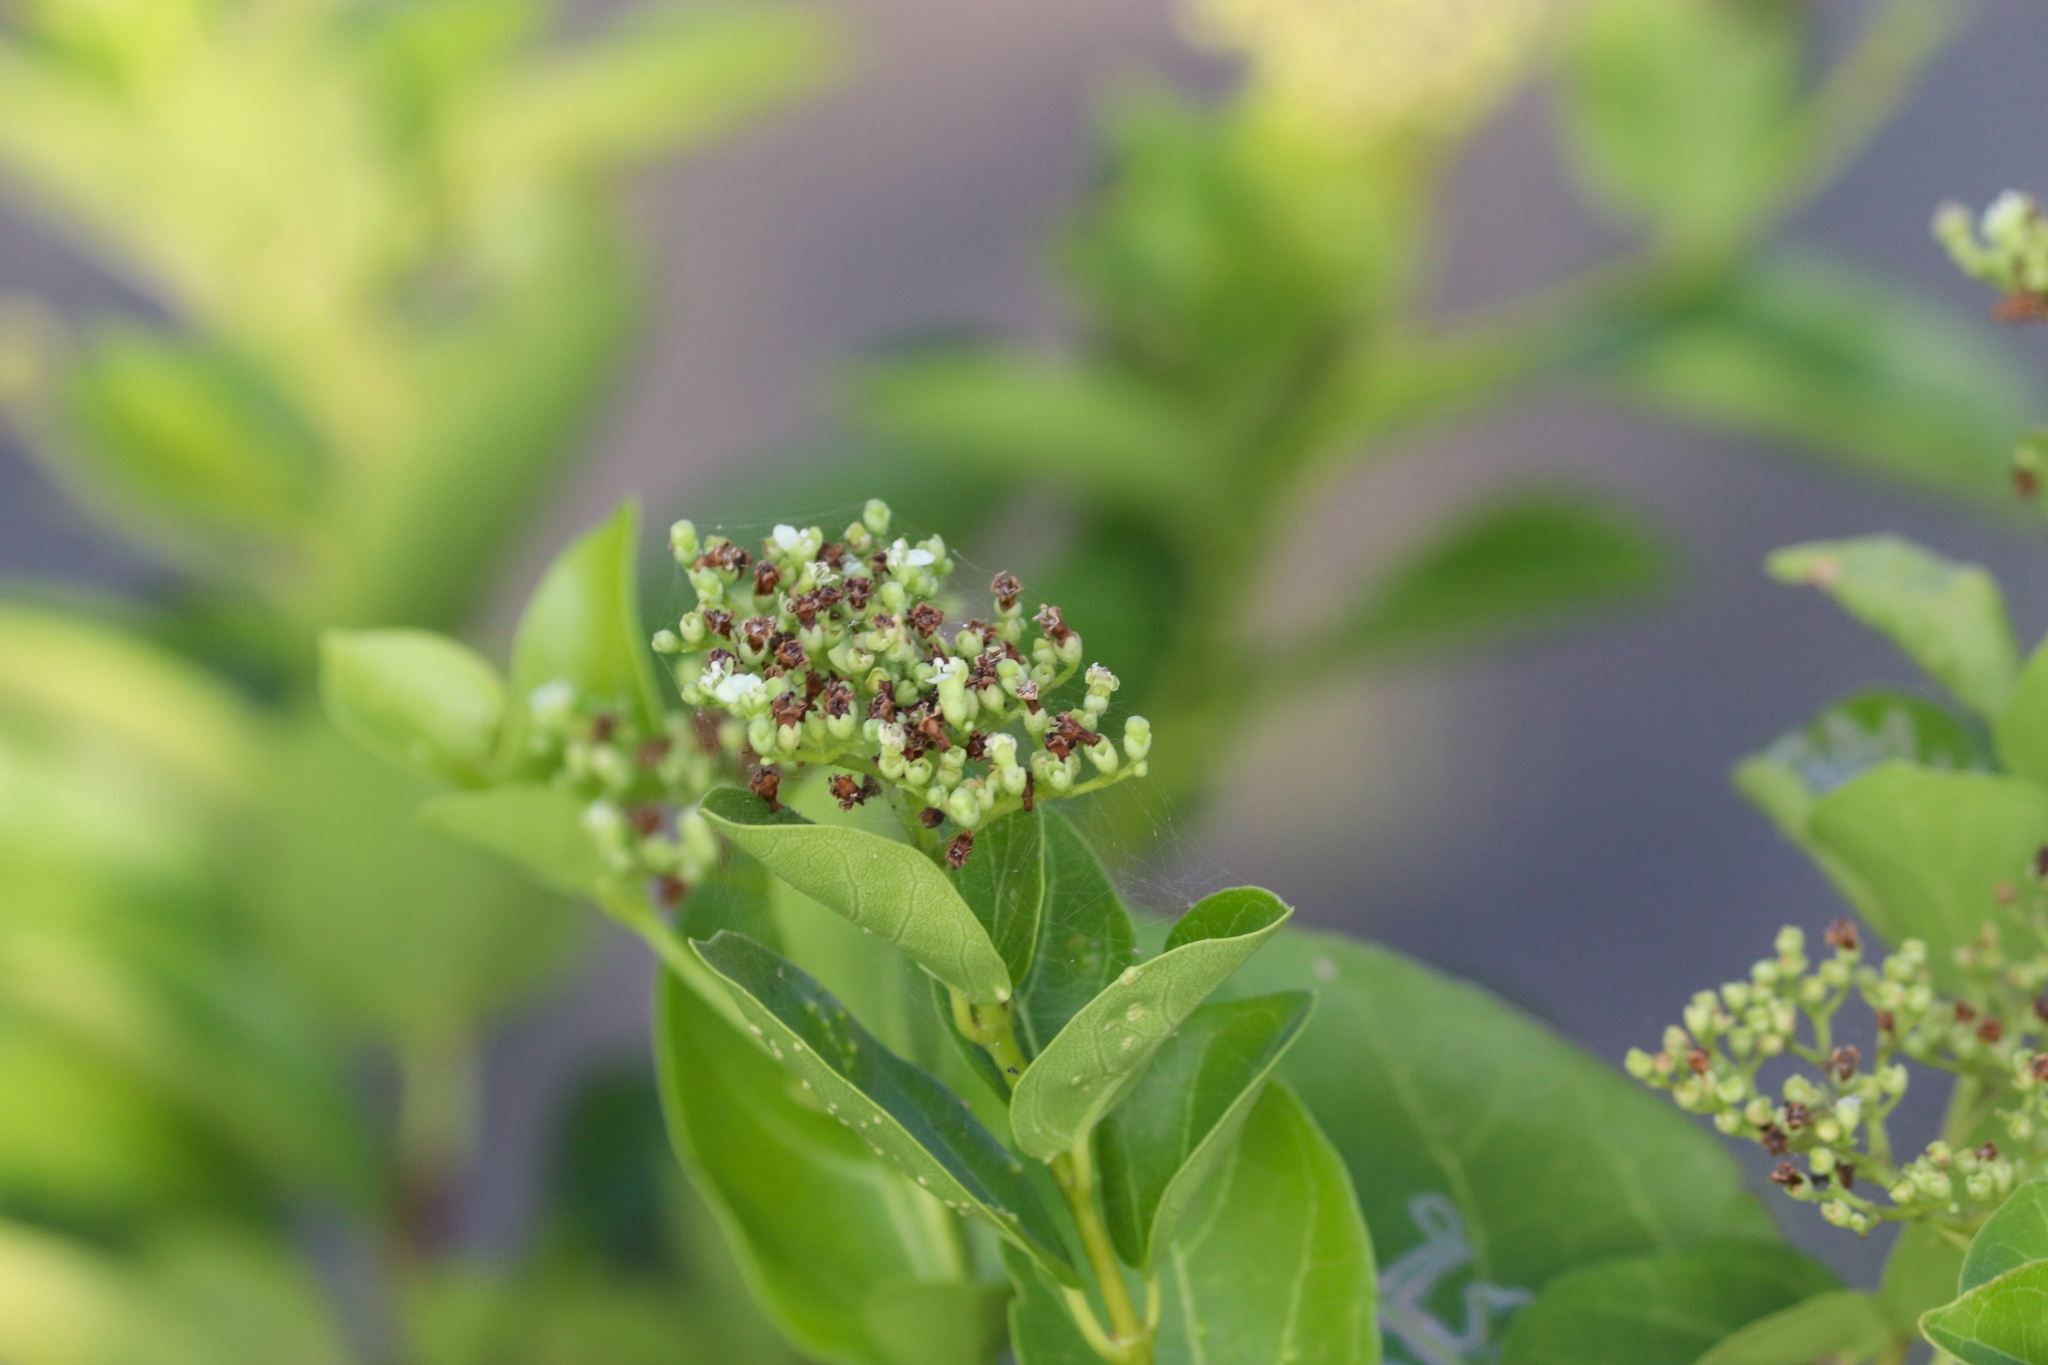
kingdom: Plantae
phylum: Tracheophyta
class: Magnoliopsida
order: Lamiales
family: Lamiaceae
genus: Premna
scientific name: Premna serratifolia
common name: Bastard guelder
